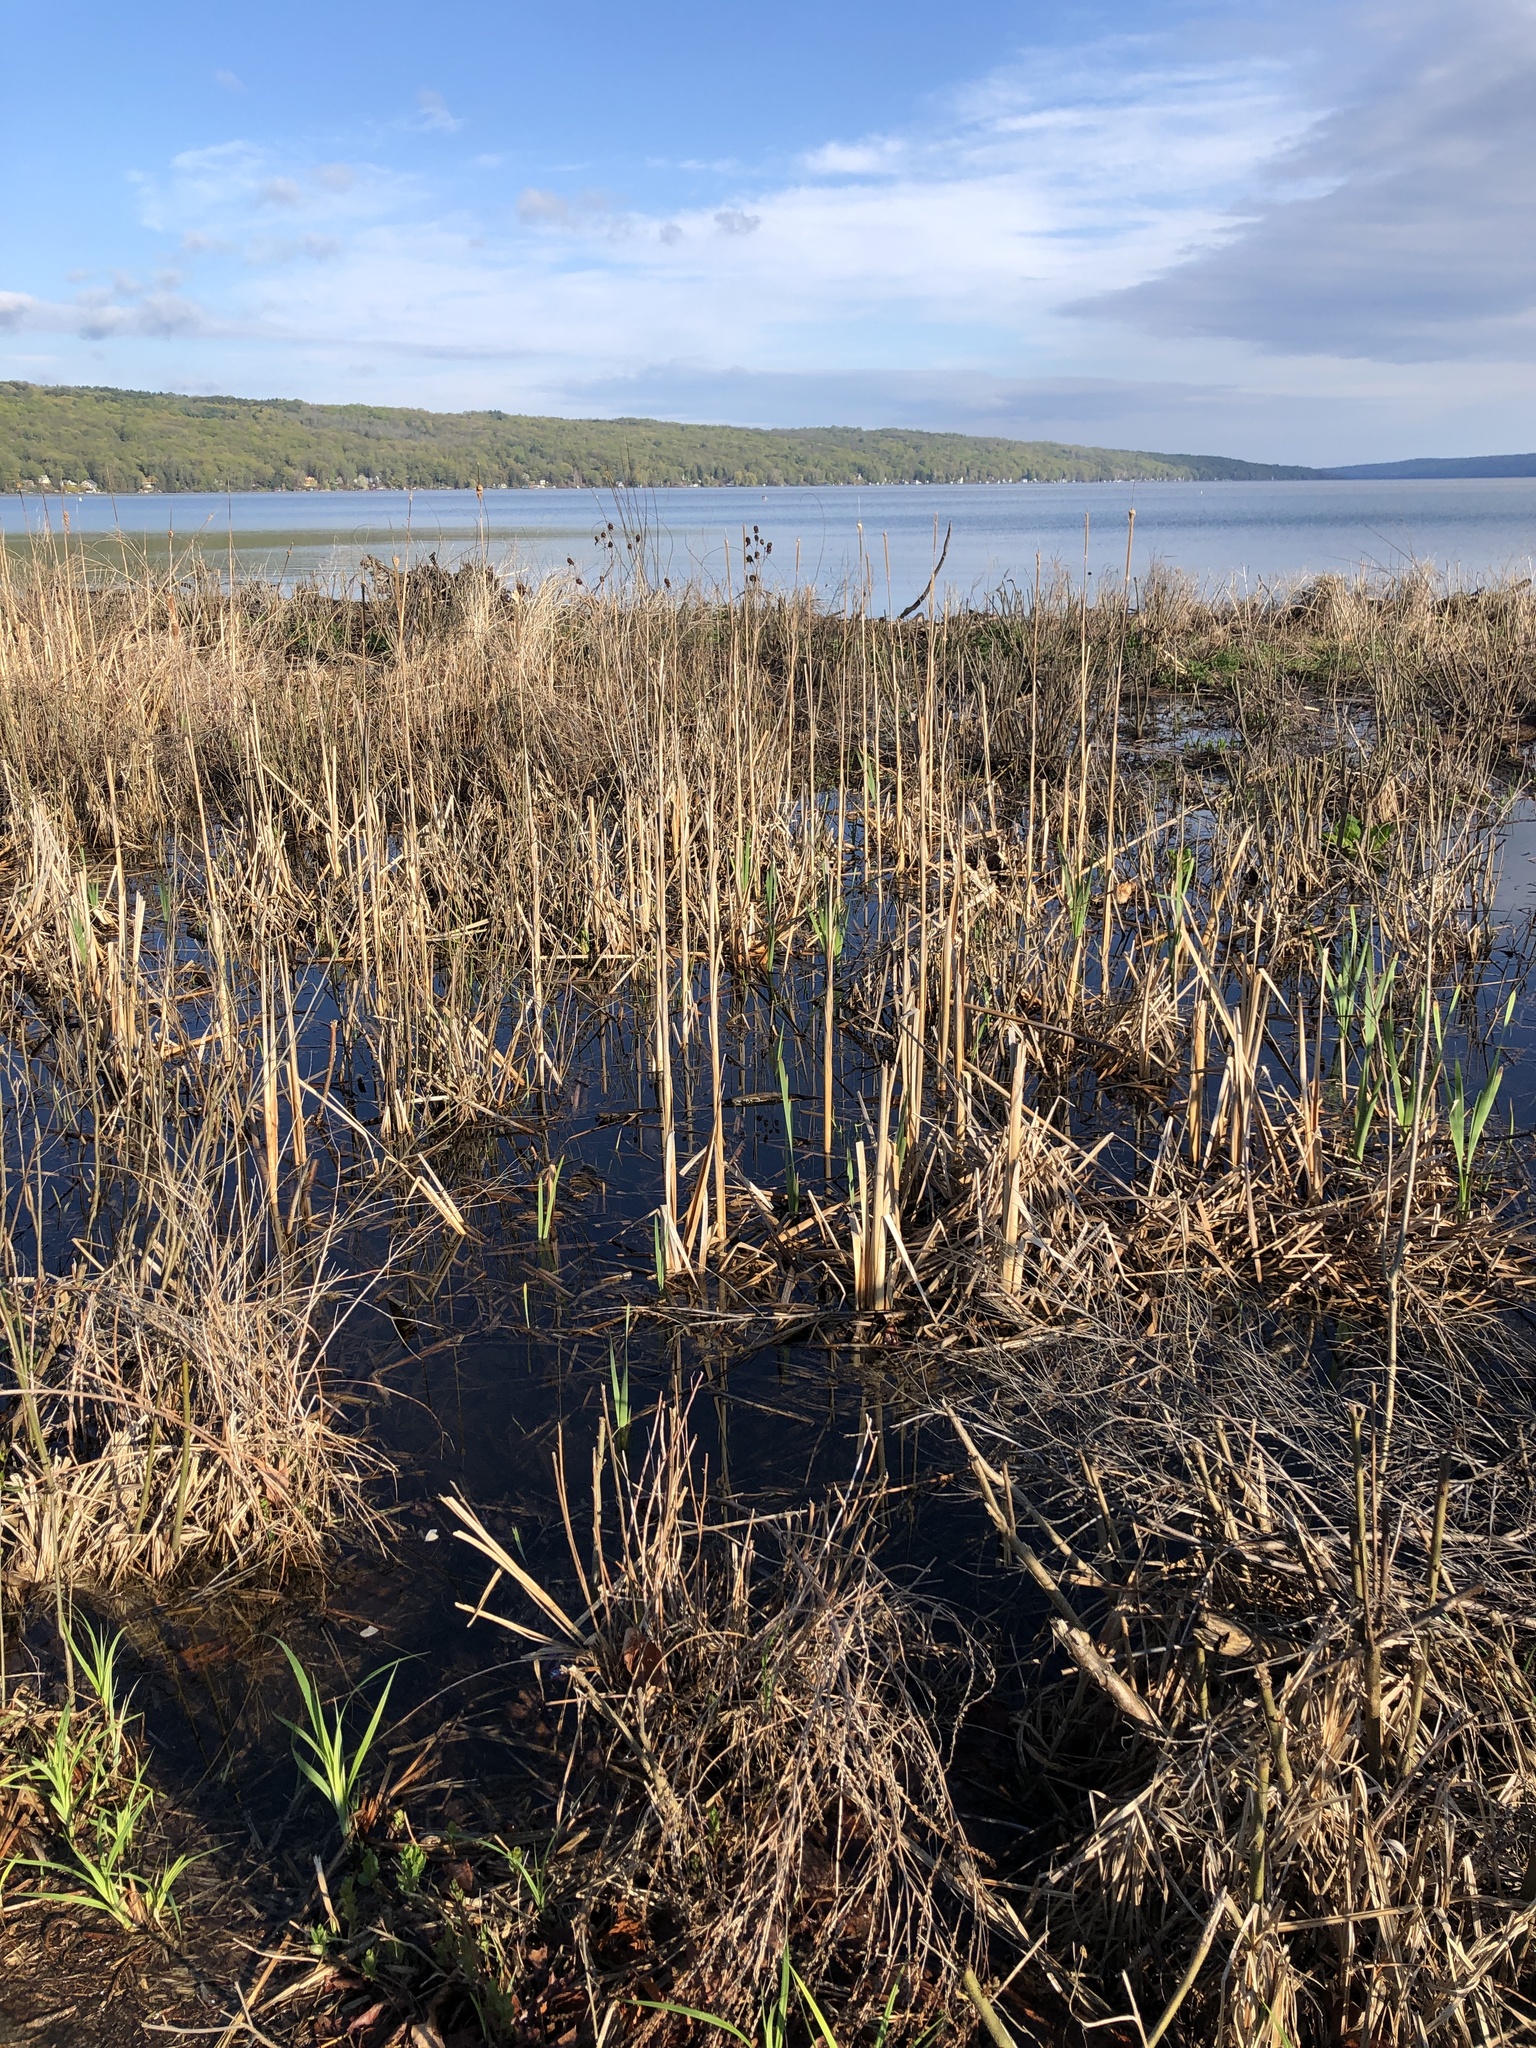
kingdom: Plantae
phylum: Tracheophyta
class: Liliopsida
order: Poales
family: Typhaceae
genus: Typha
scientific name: Typha
